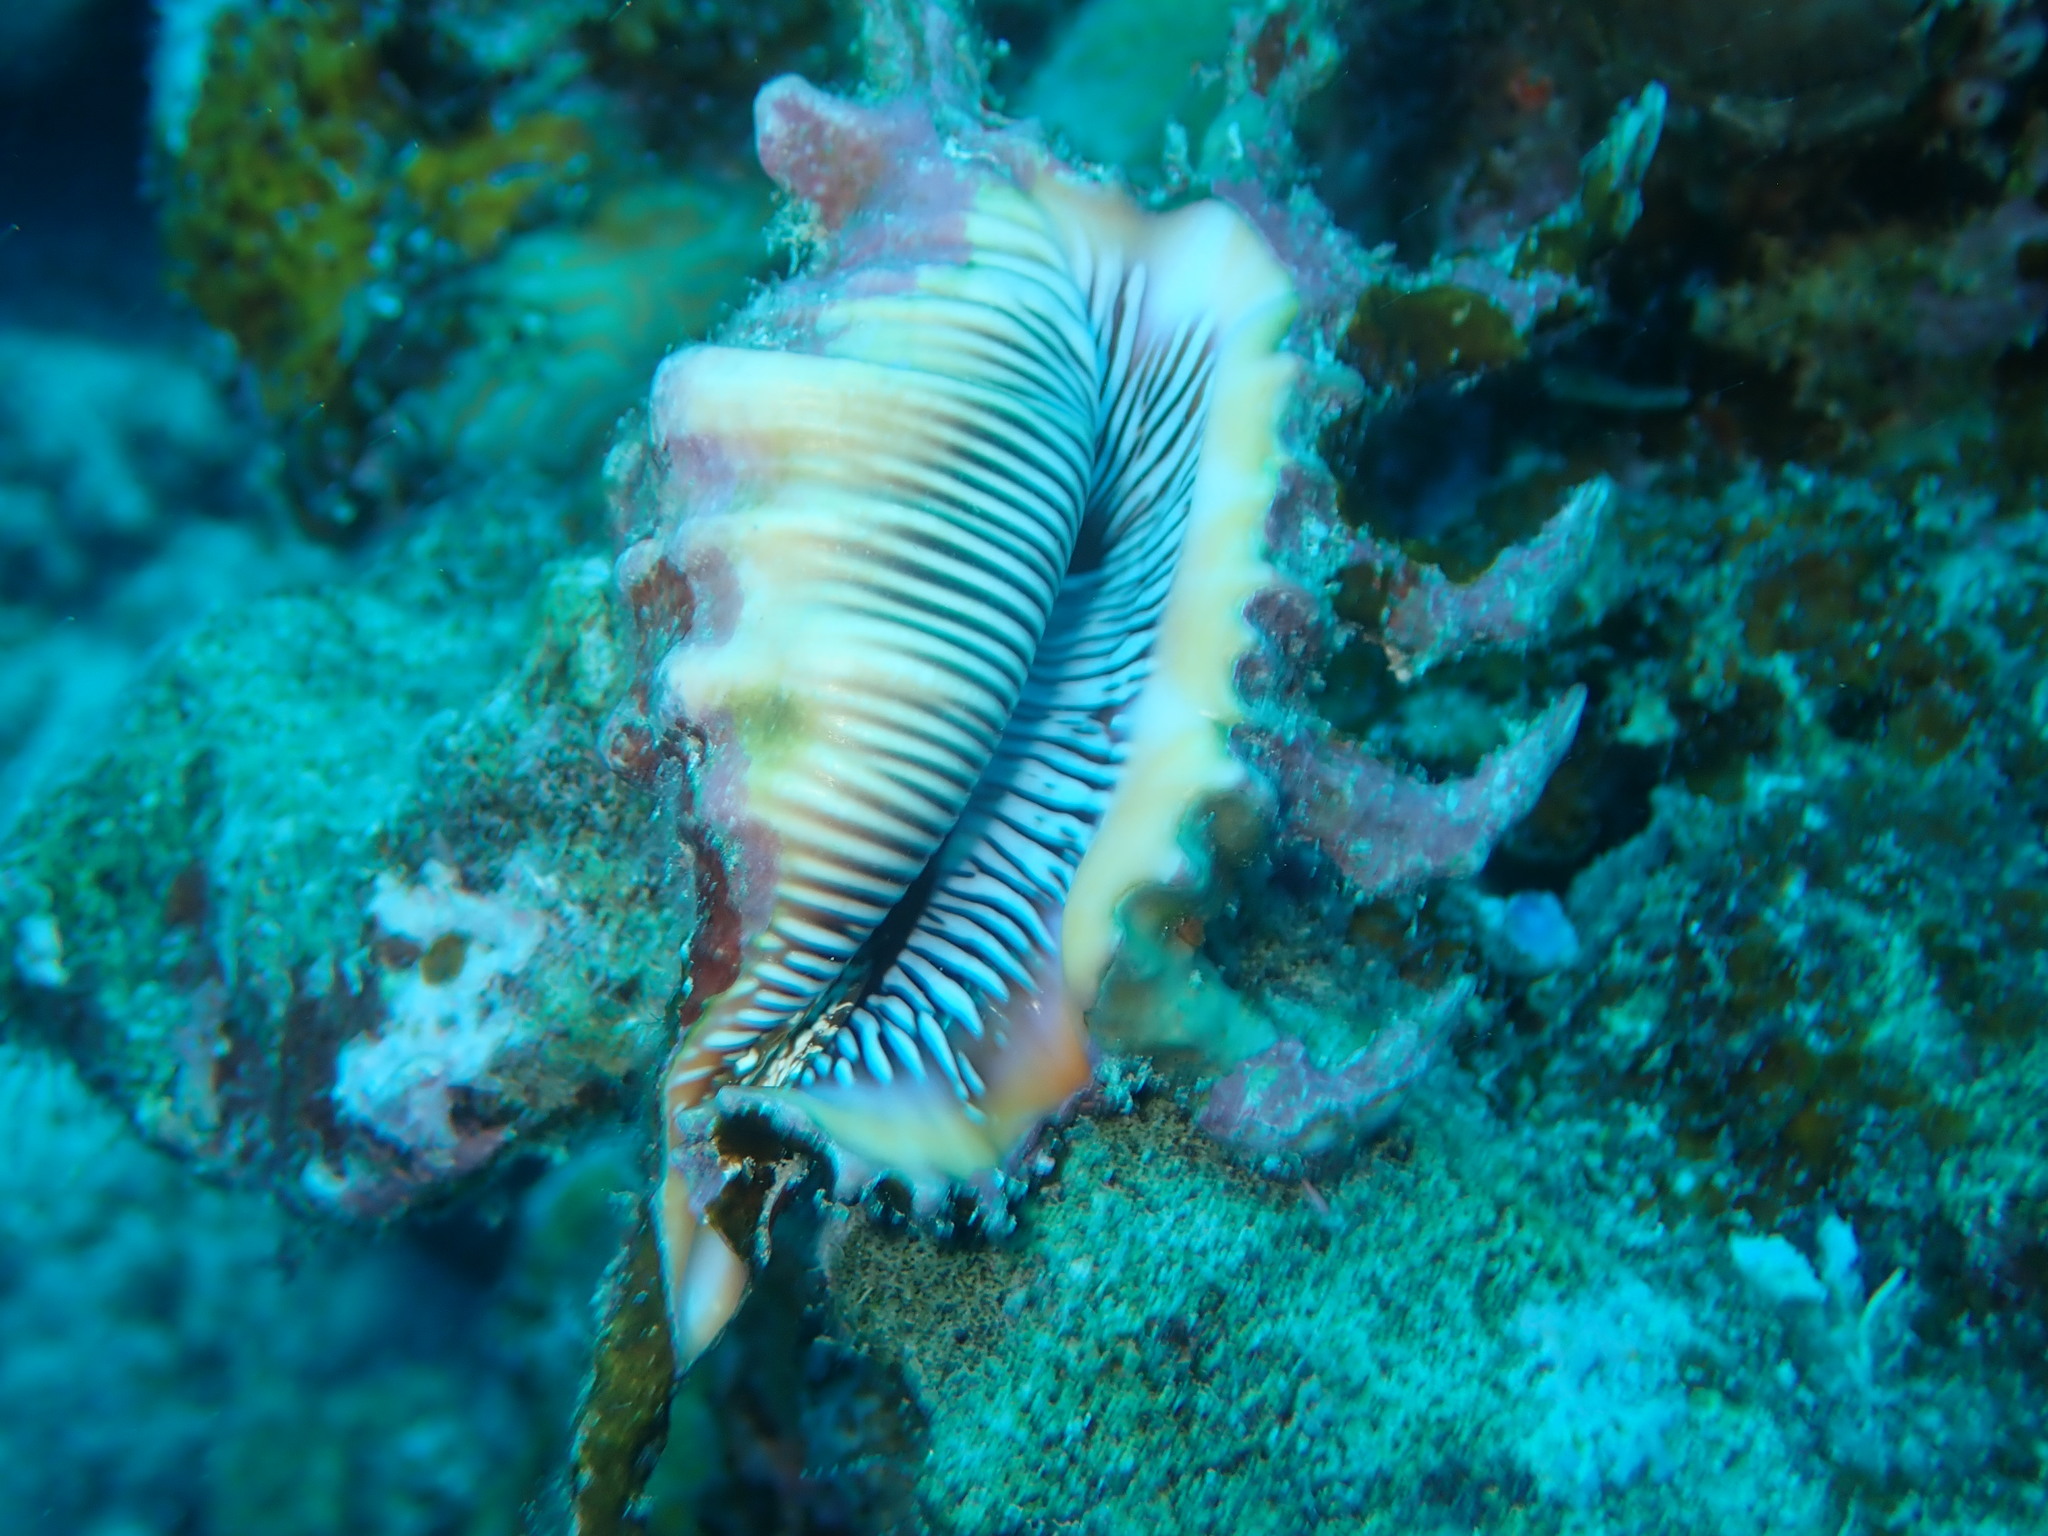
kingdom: Animalia
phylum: Mollusca
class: Gastropoda
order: Littorinimorpha
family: Strombidae
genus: Lambis
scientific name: Lambis scorpius
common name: Scorpion spider conch
